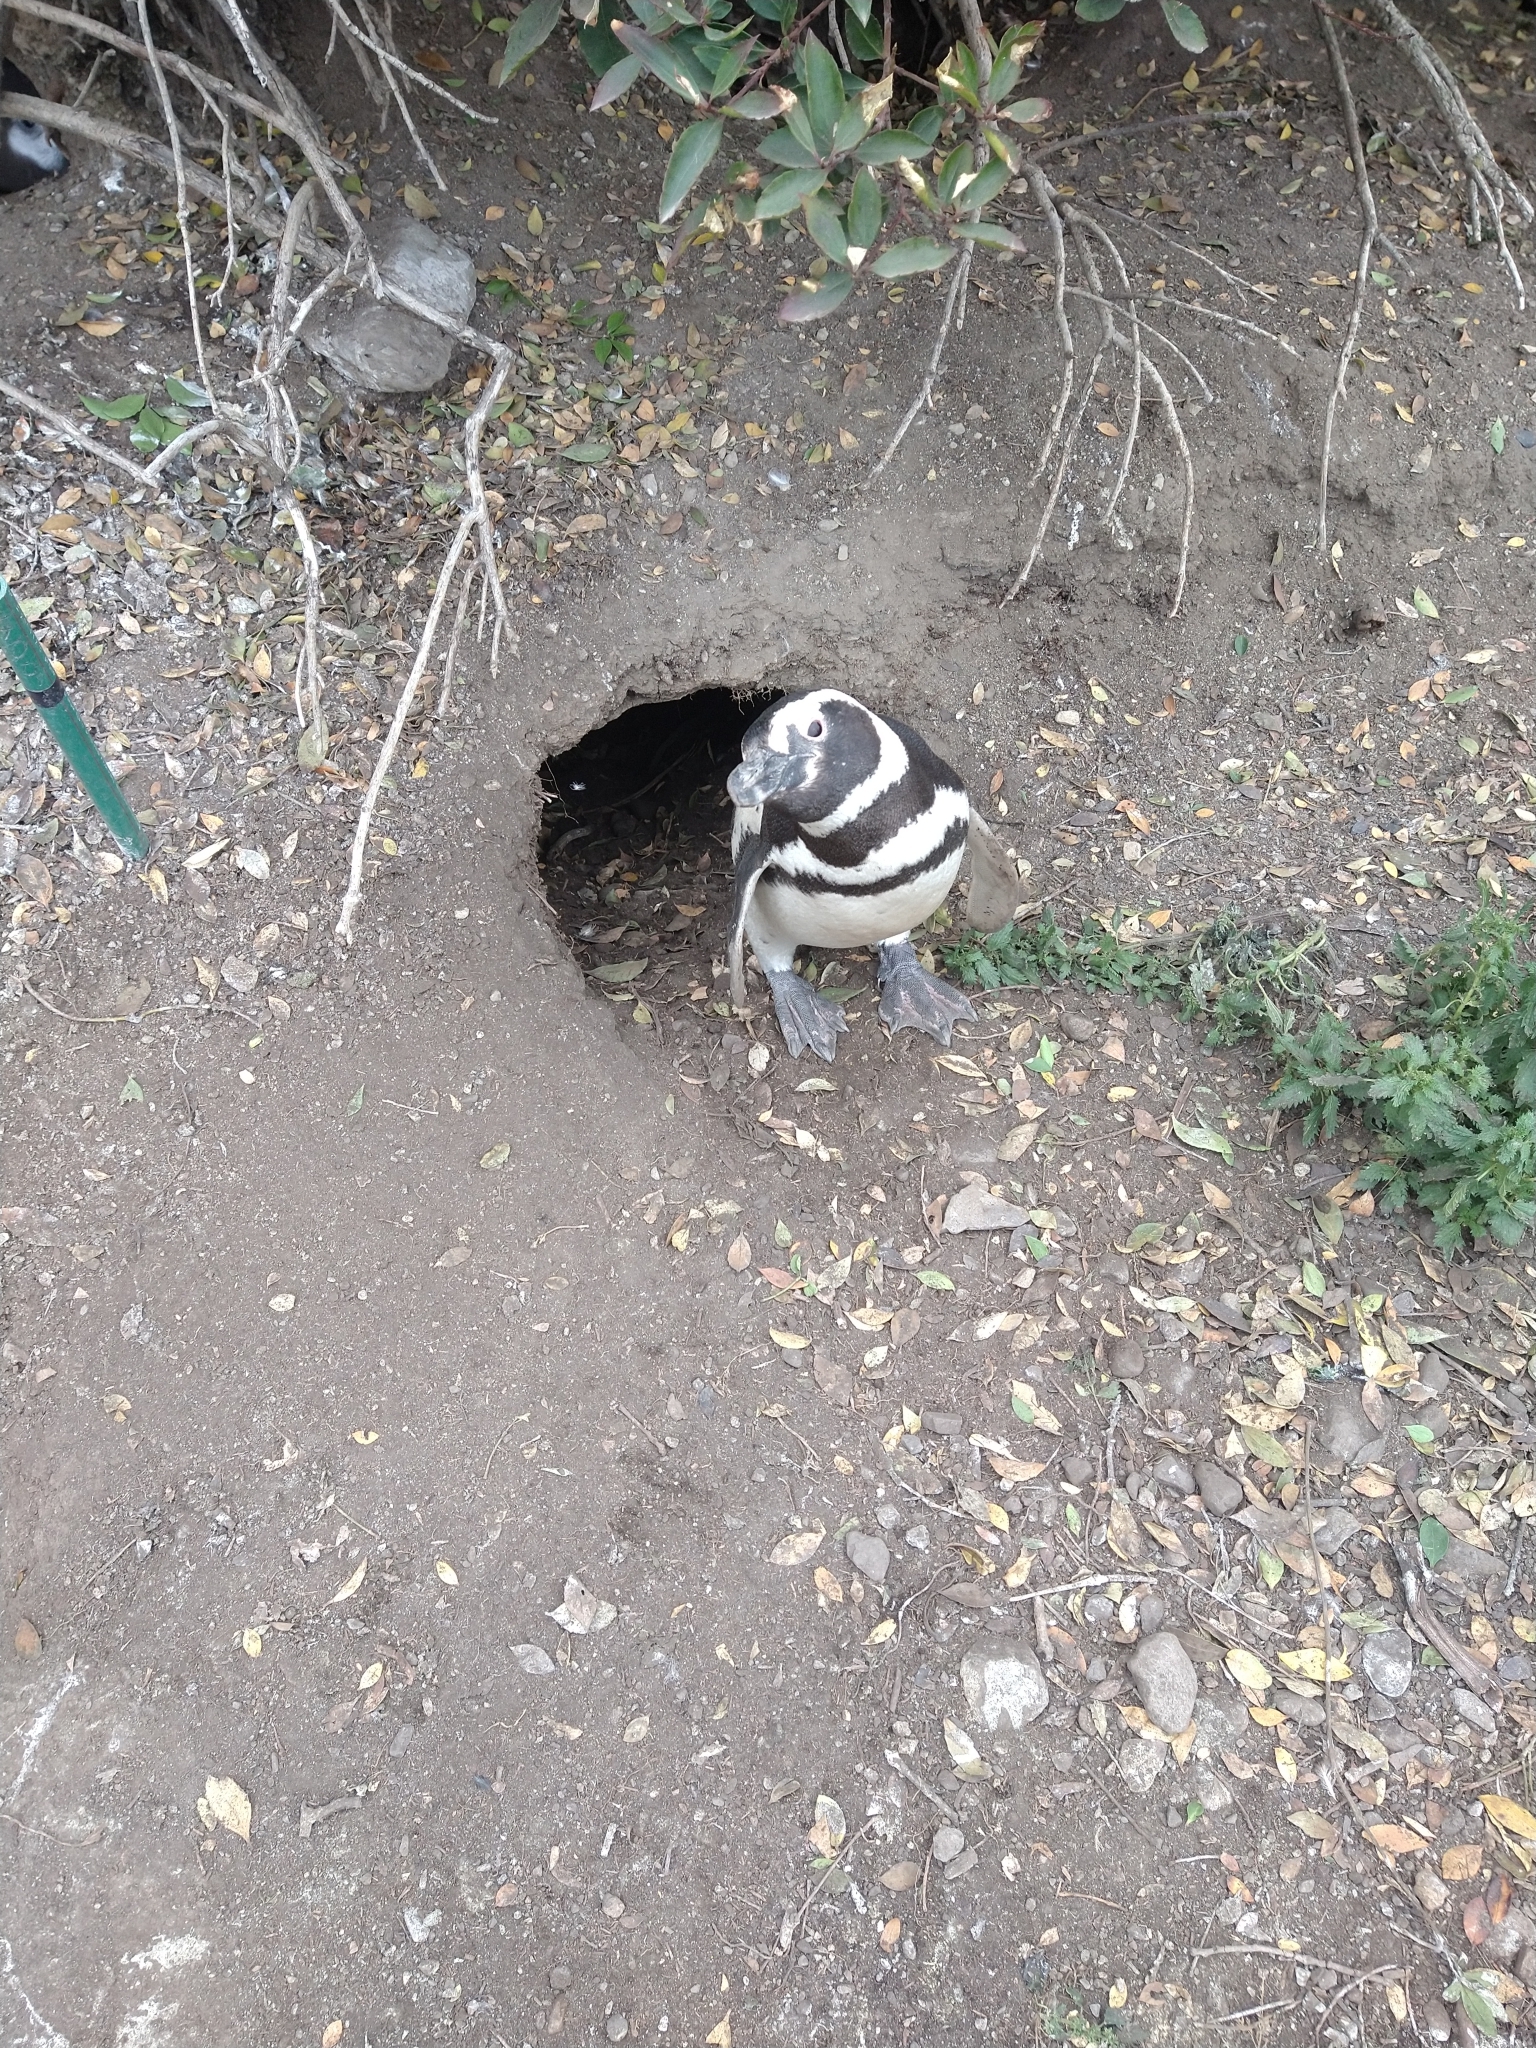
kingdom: Animalia
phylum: Chordata
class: Aves
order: Sphenisciformes
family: Spheniscidae
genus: Spheniscus
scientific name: Spheniscus magellanicus
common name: Magellanic penguin
